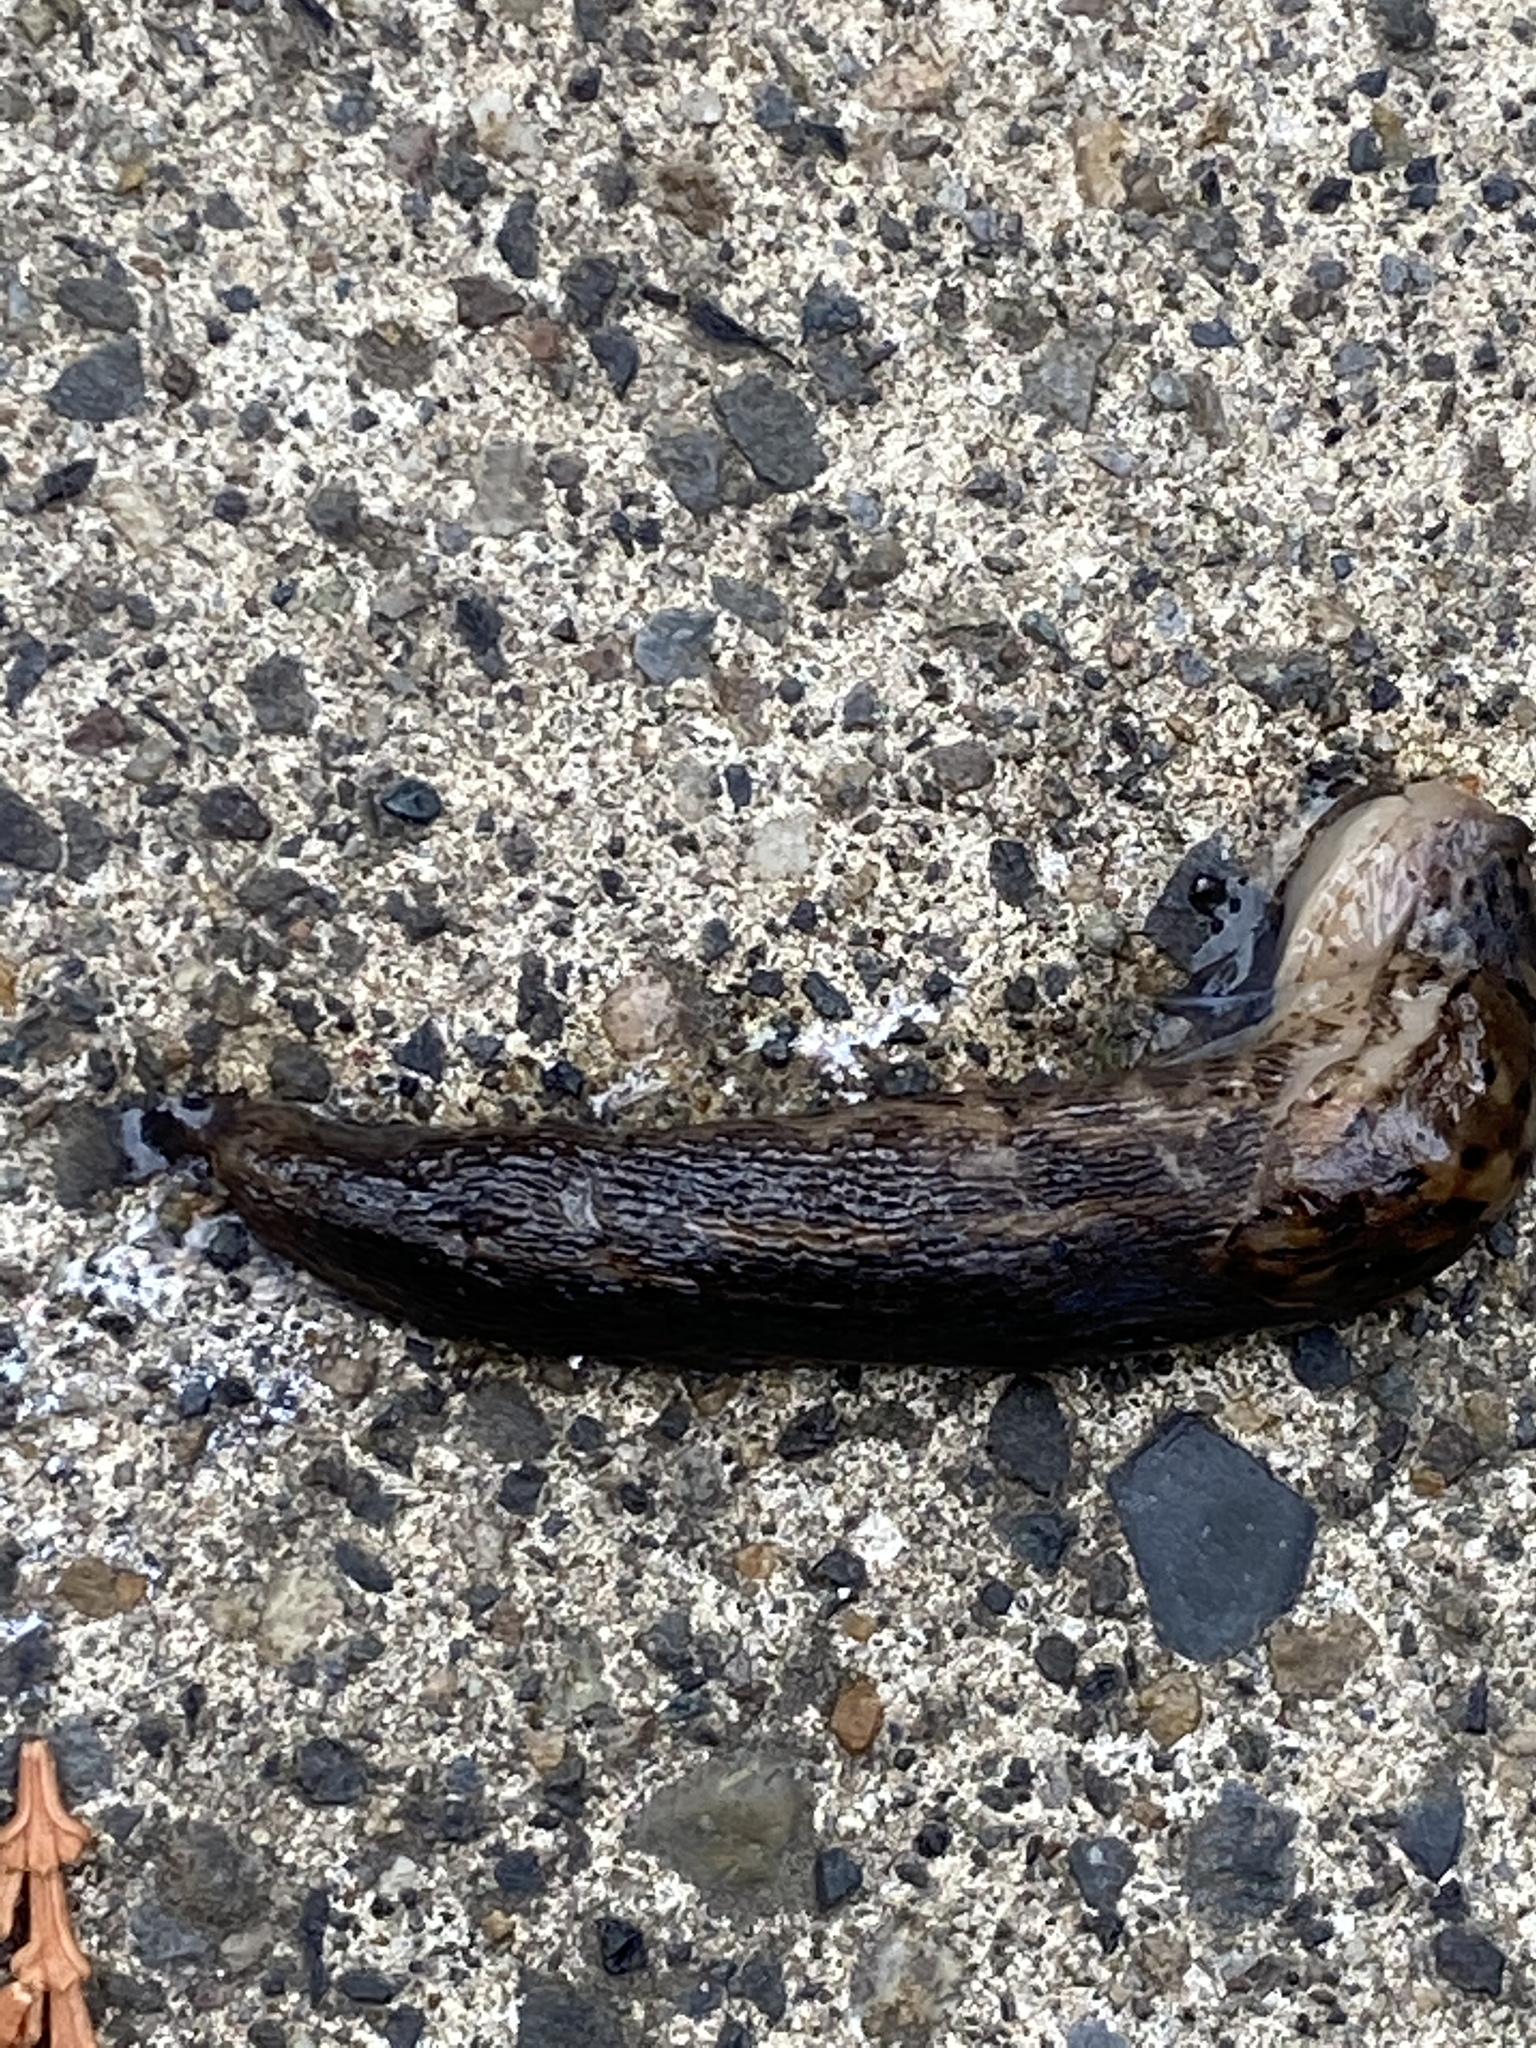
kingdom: Animalia
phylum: Mollusca
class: Gastropoda
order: Stylommatophora
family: Limacidae
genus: Limax
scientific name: Limax maximus
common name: Great grey slug
